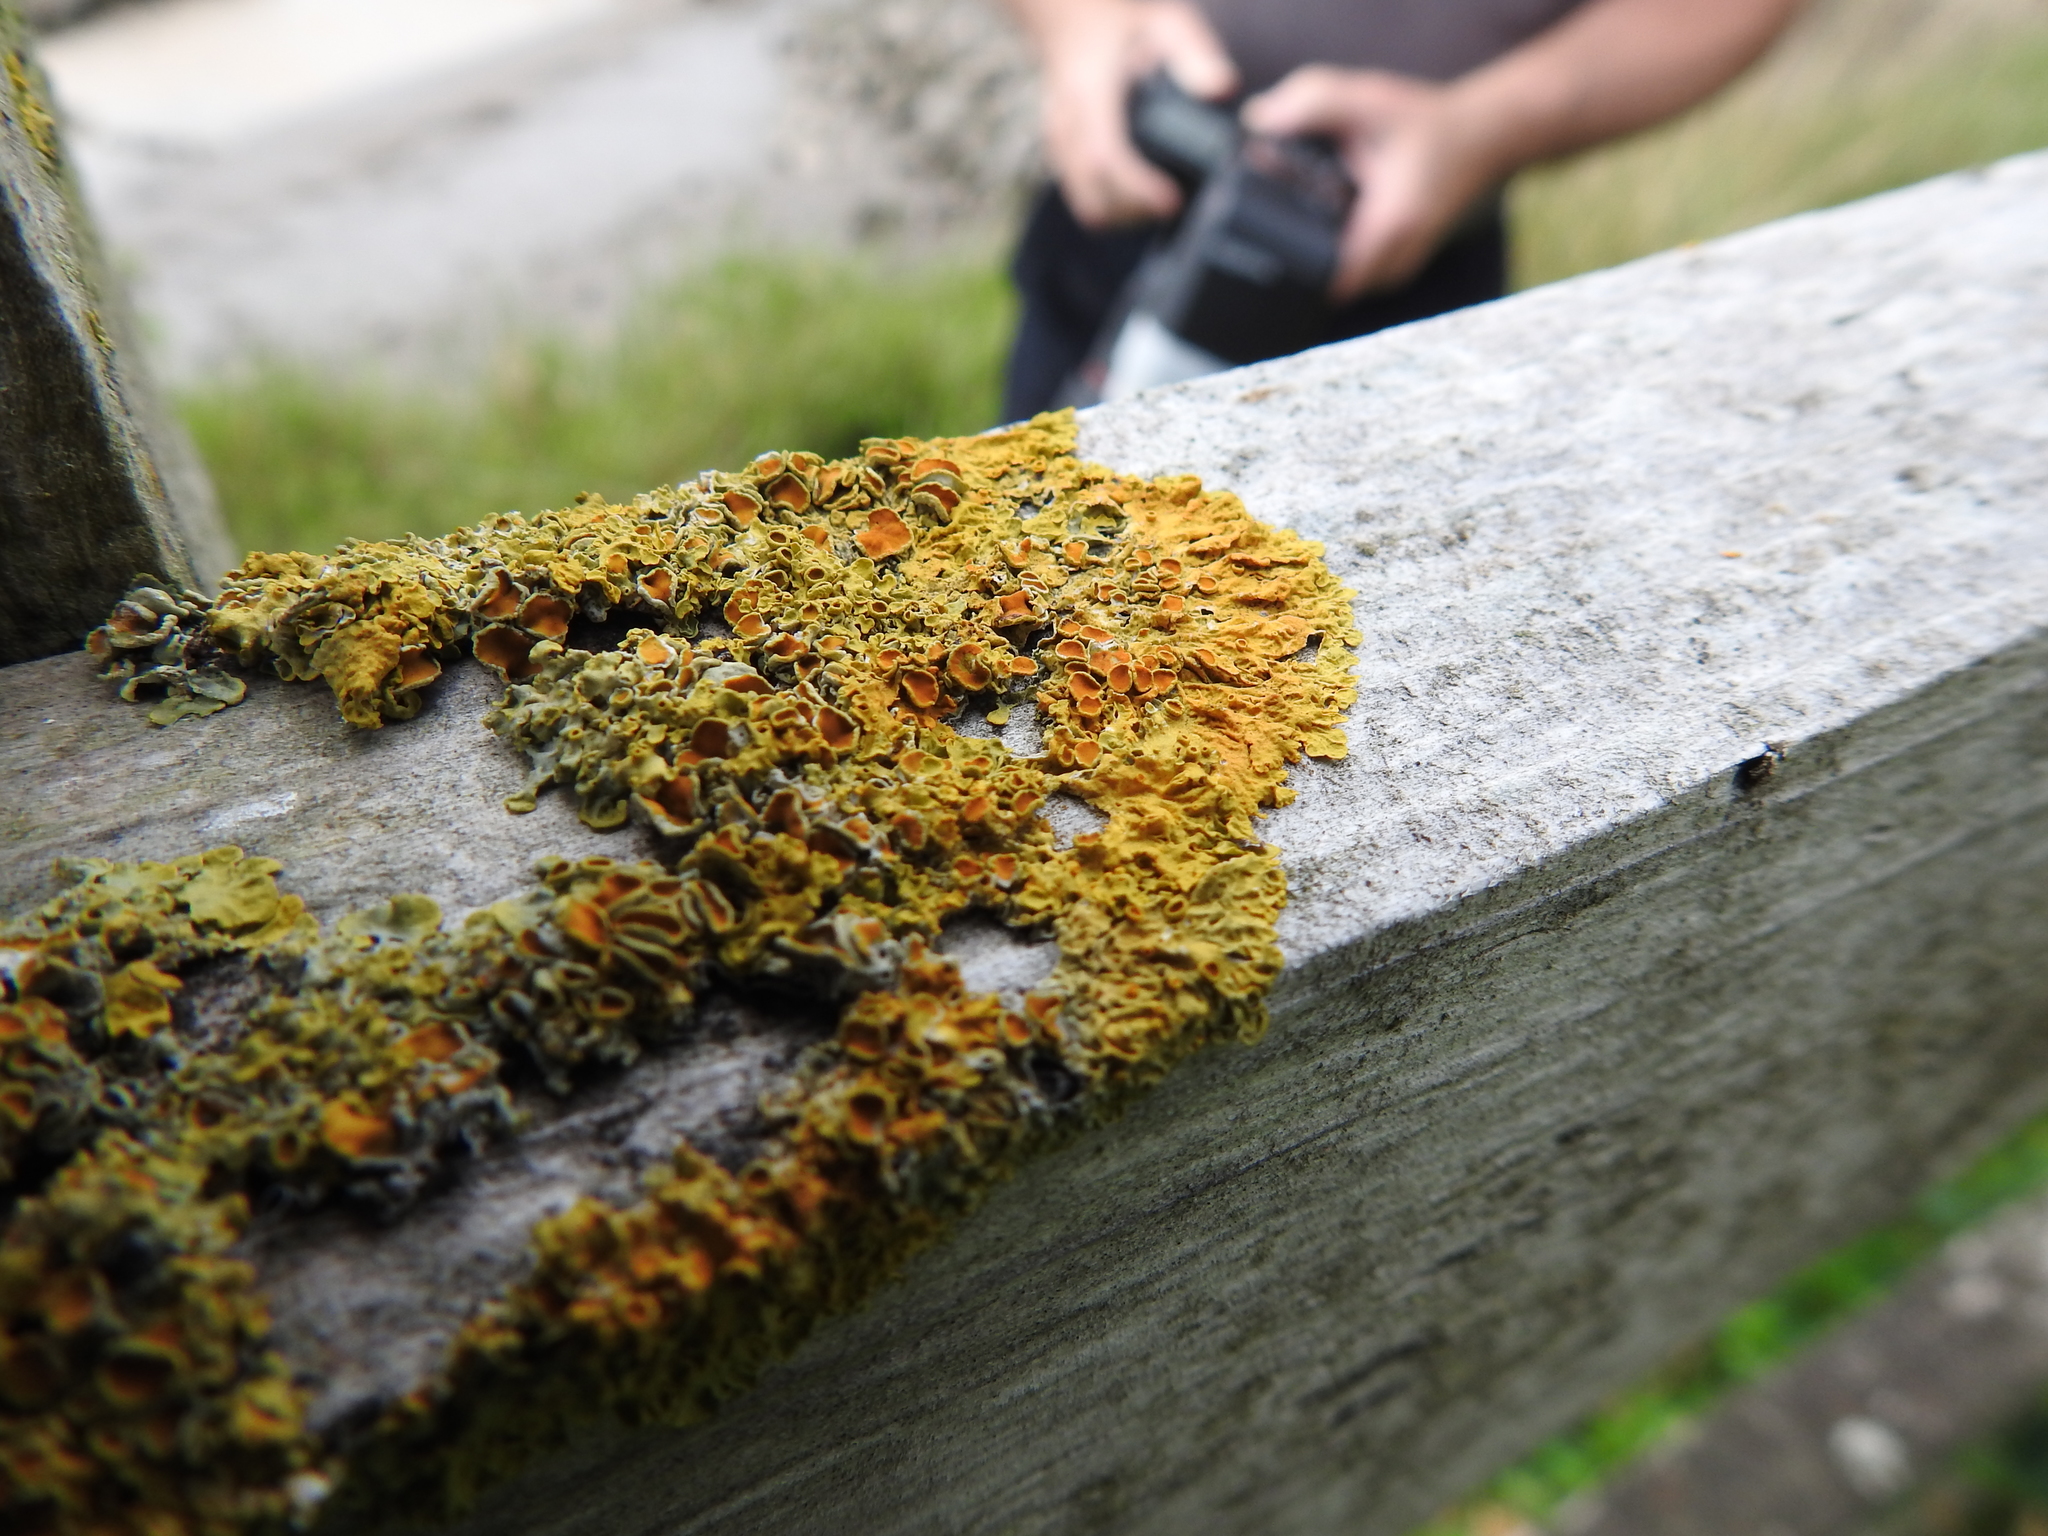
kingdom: Fungi
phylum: Ascomycota
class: Lecanoromycetes
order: Teloschistales
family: Teloschistaceae
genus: Xanthoria
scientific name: Xanthoria parietina
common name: Common orange lichen
